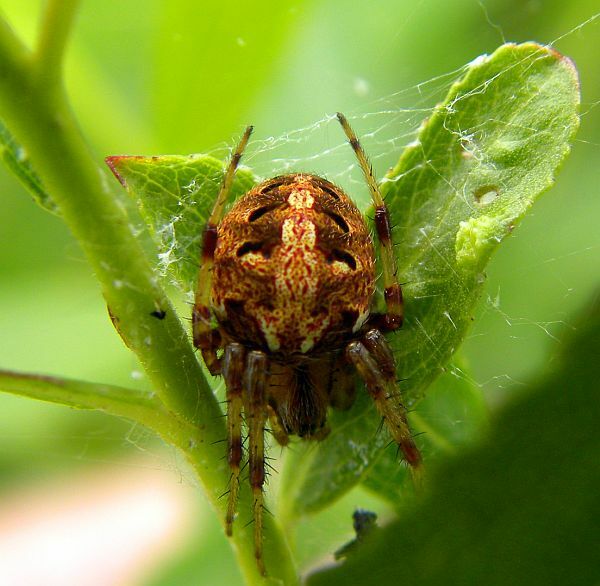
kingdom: Animalia
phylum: Arthropoda
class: Arachnida
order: Araneae
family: Araneidae
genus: Neoscona
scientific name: Neoscona arabesca
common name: Orb weavers
